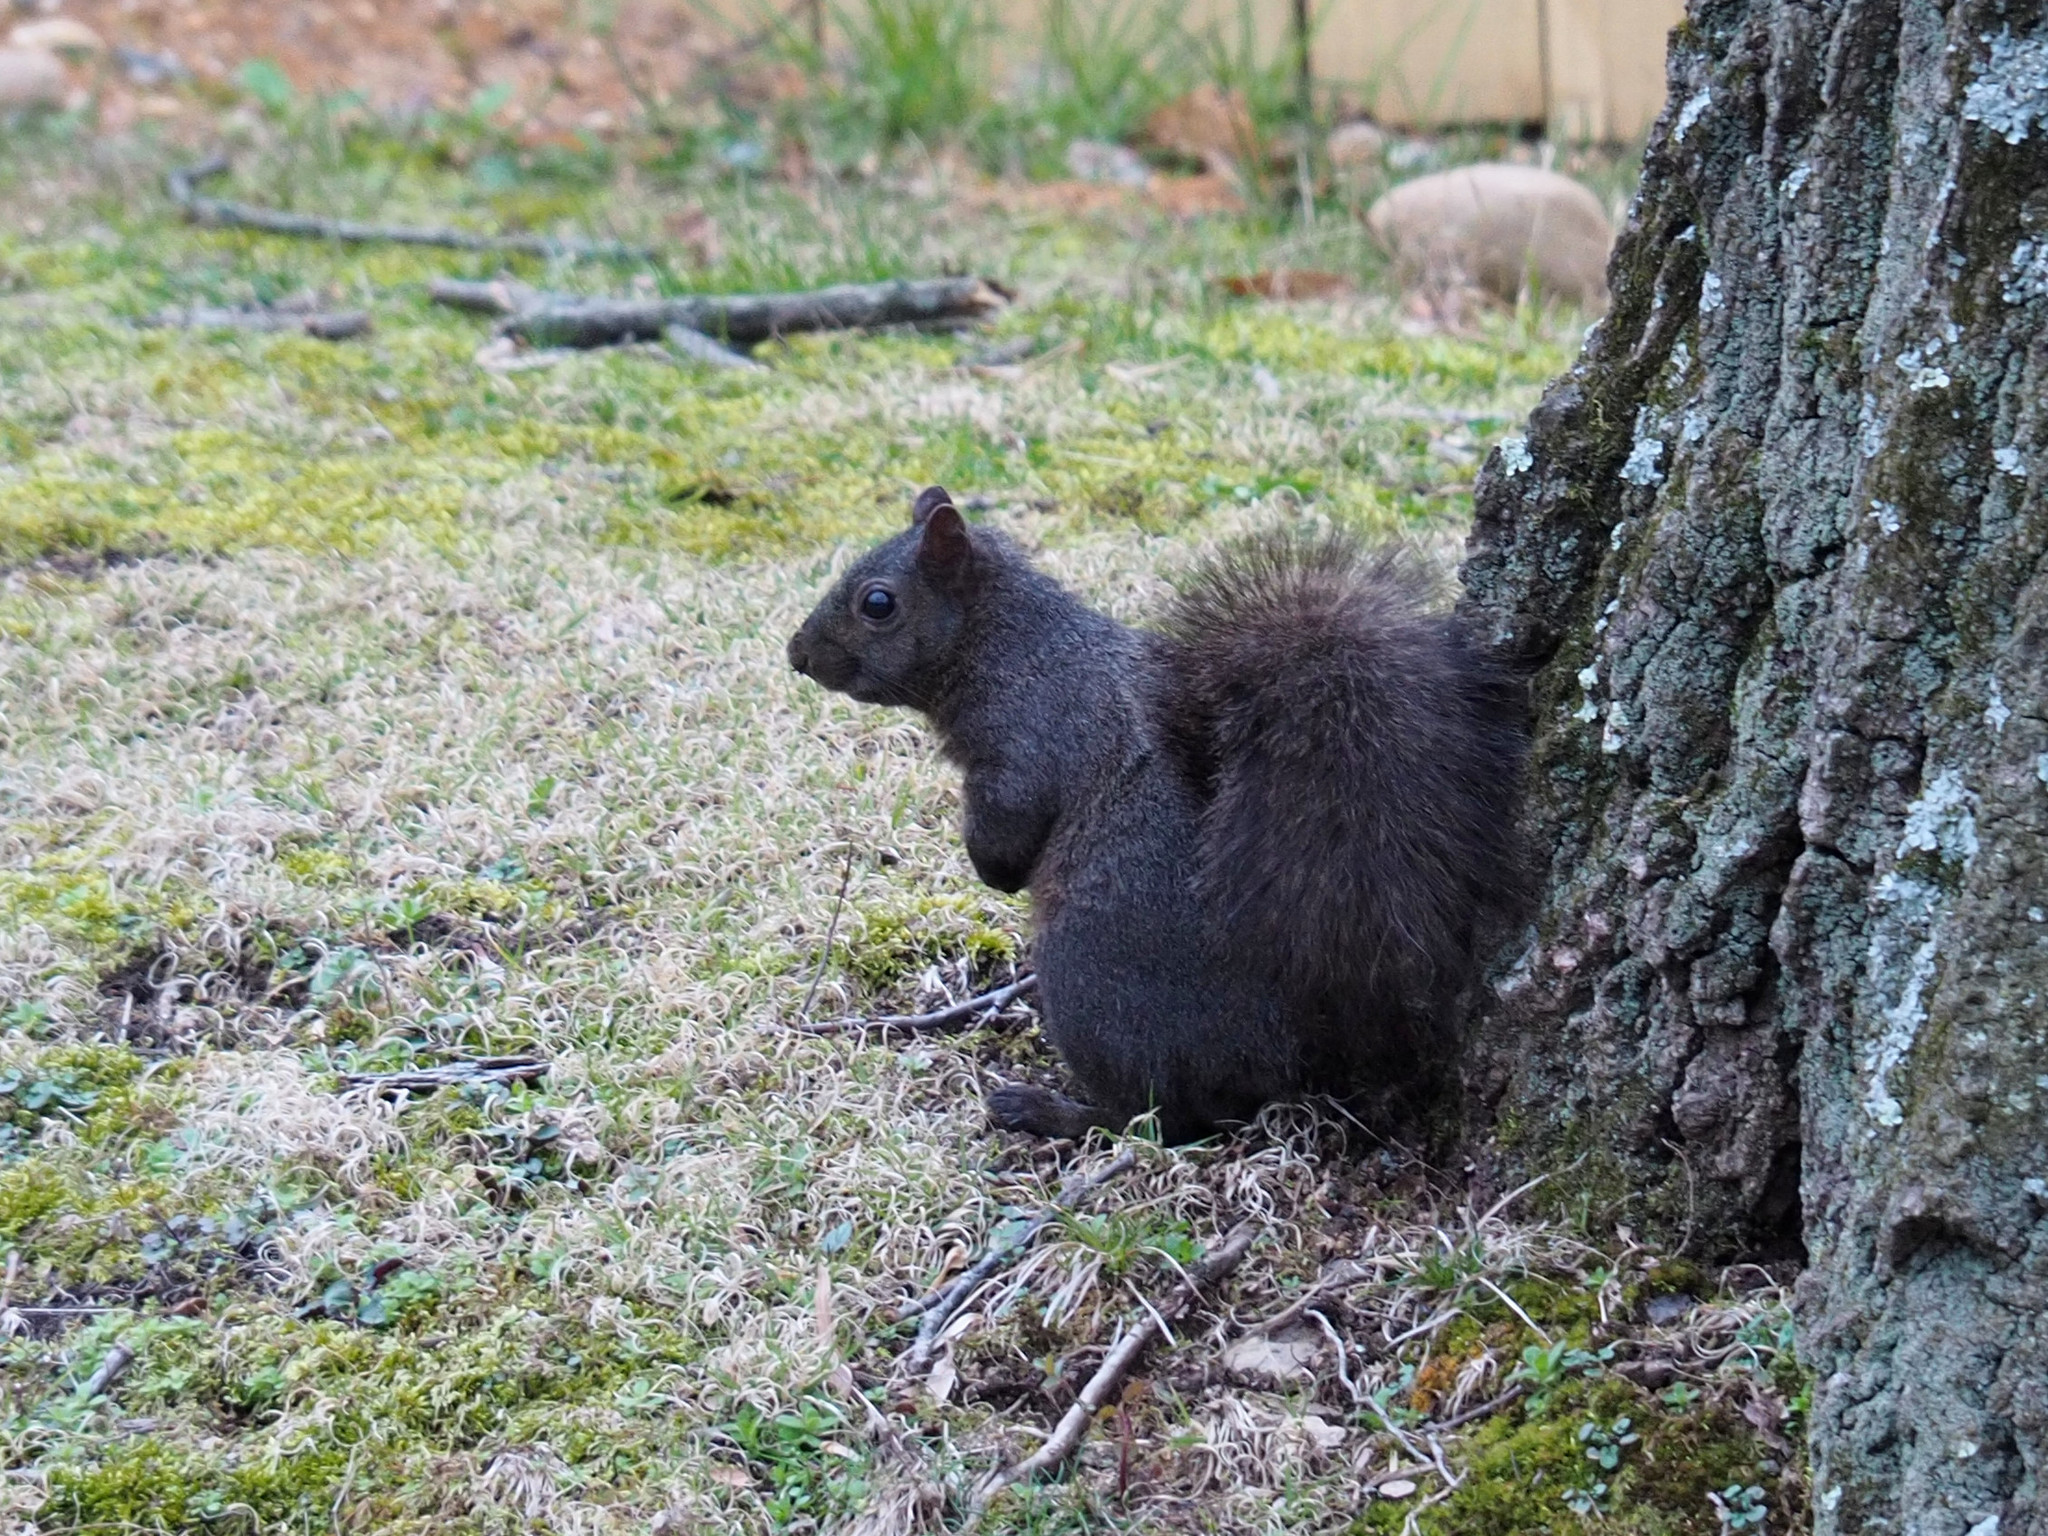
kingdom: Animalia
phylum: Chordata
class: Mammalia
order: Rodentia
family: Sciuridae
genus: Sciurus
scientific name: Sciurus carolinensis
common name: Eastern gray squirrel
